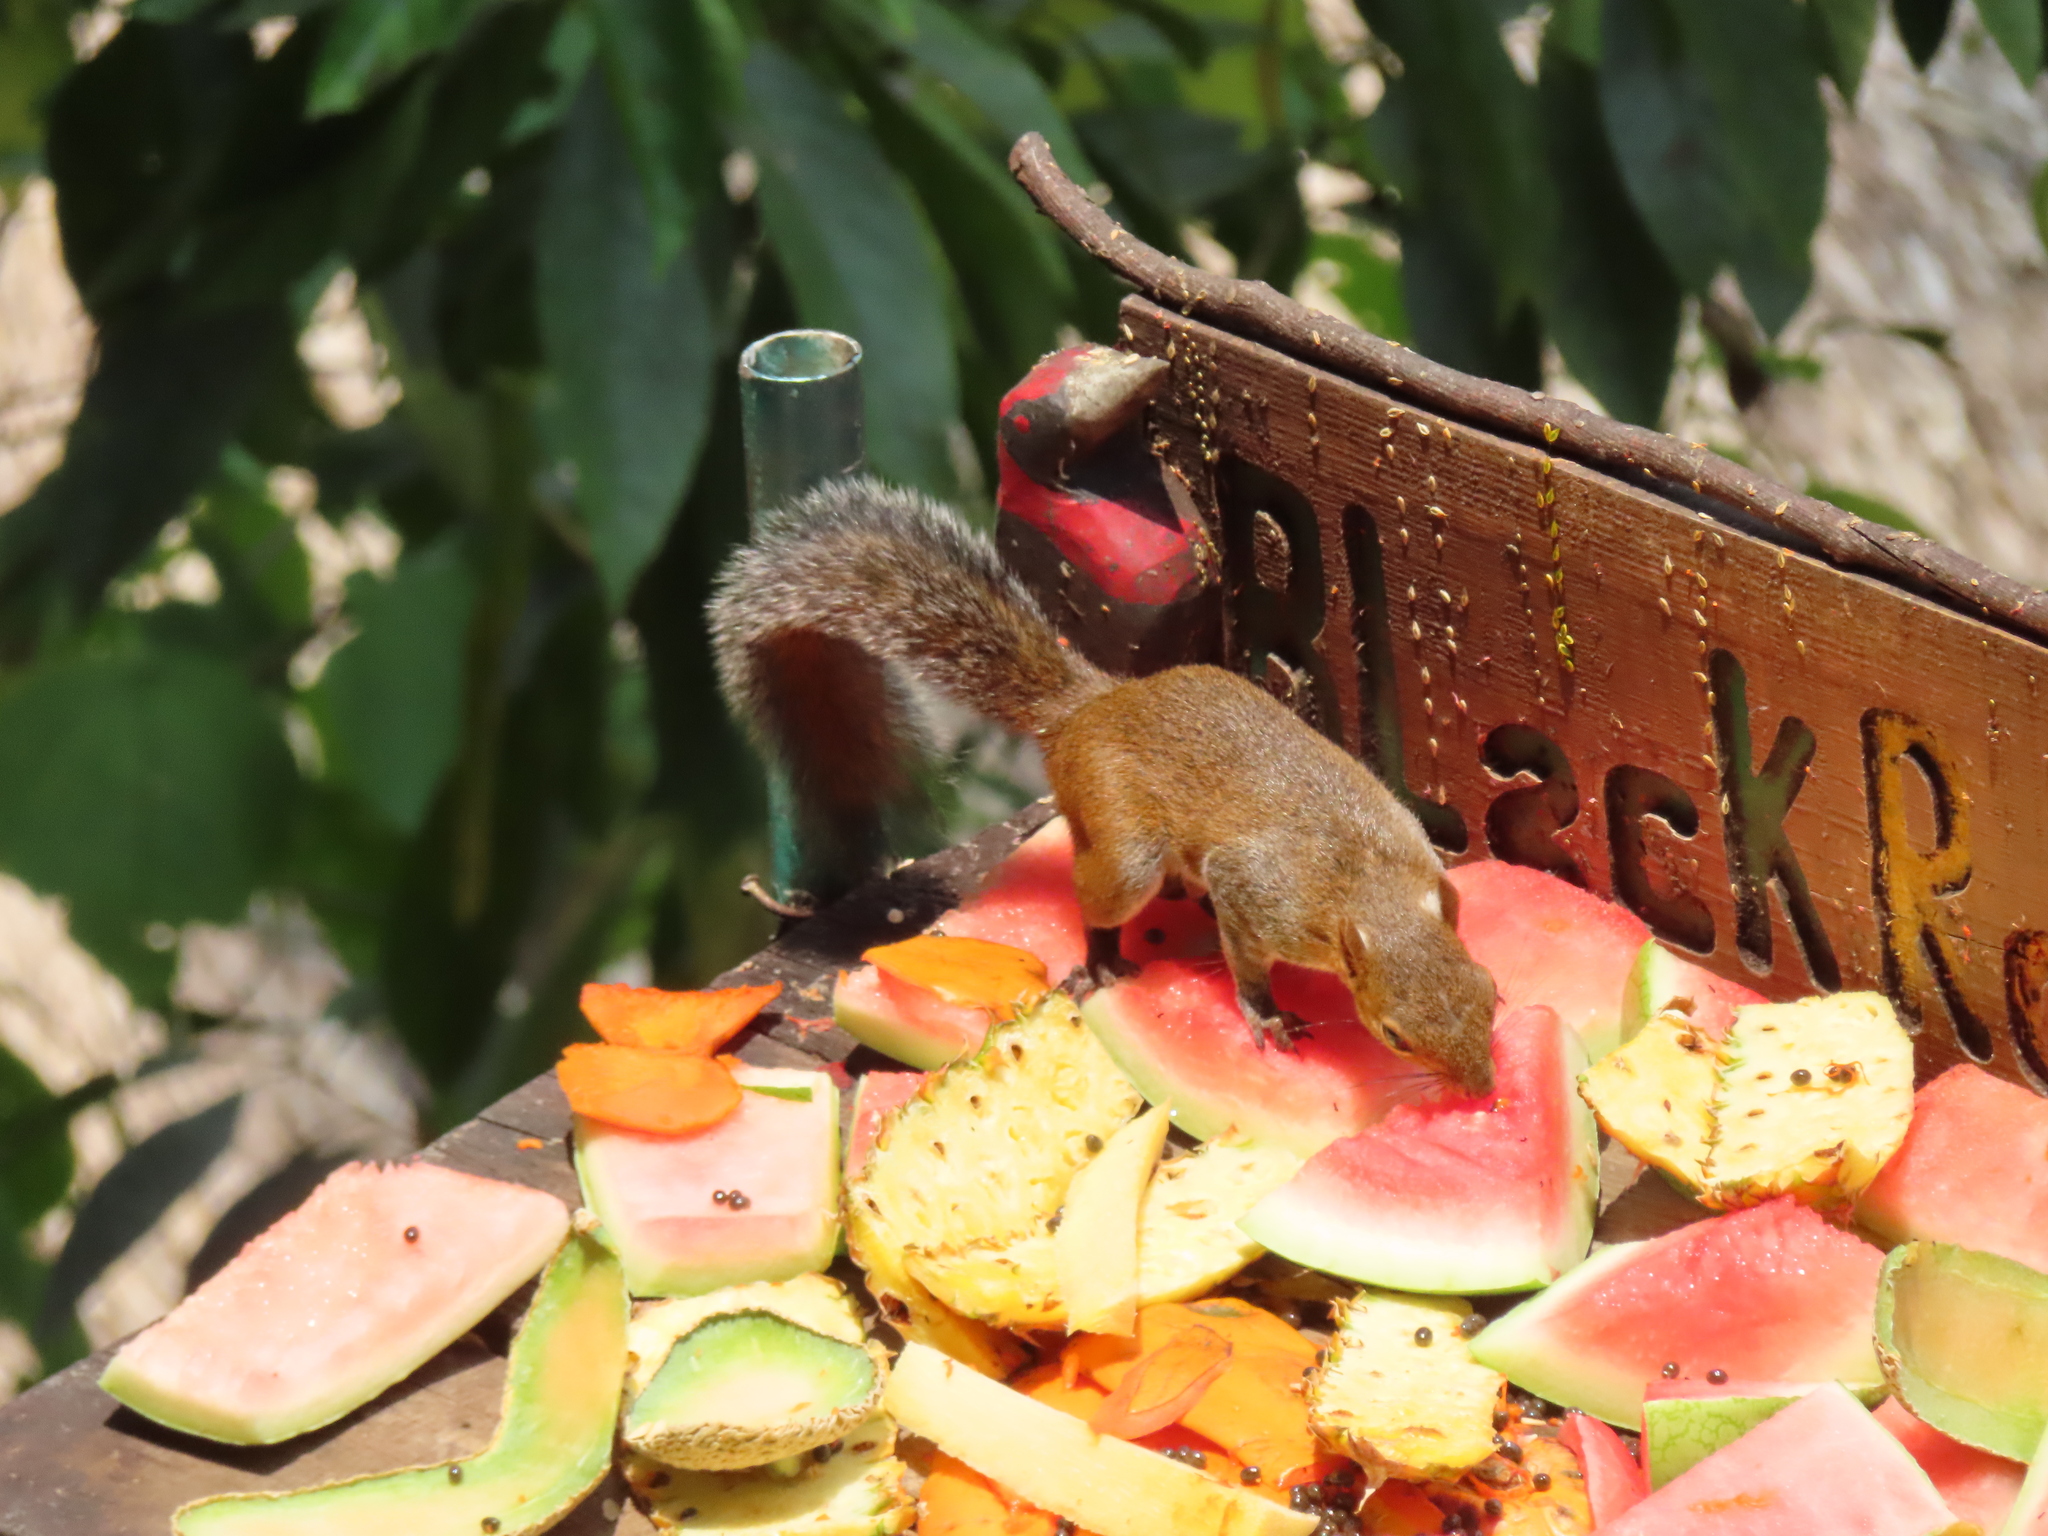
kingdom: Animalia
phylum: Chordata
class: Mammalia
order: Rodentia
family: Sciuridae
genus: Sciurus
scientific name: Sciurus deppei
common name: Deppe's squirrel
